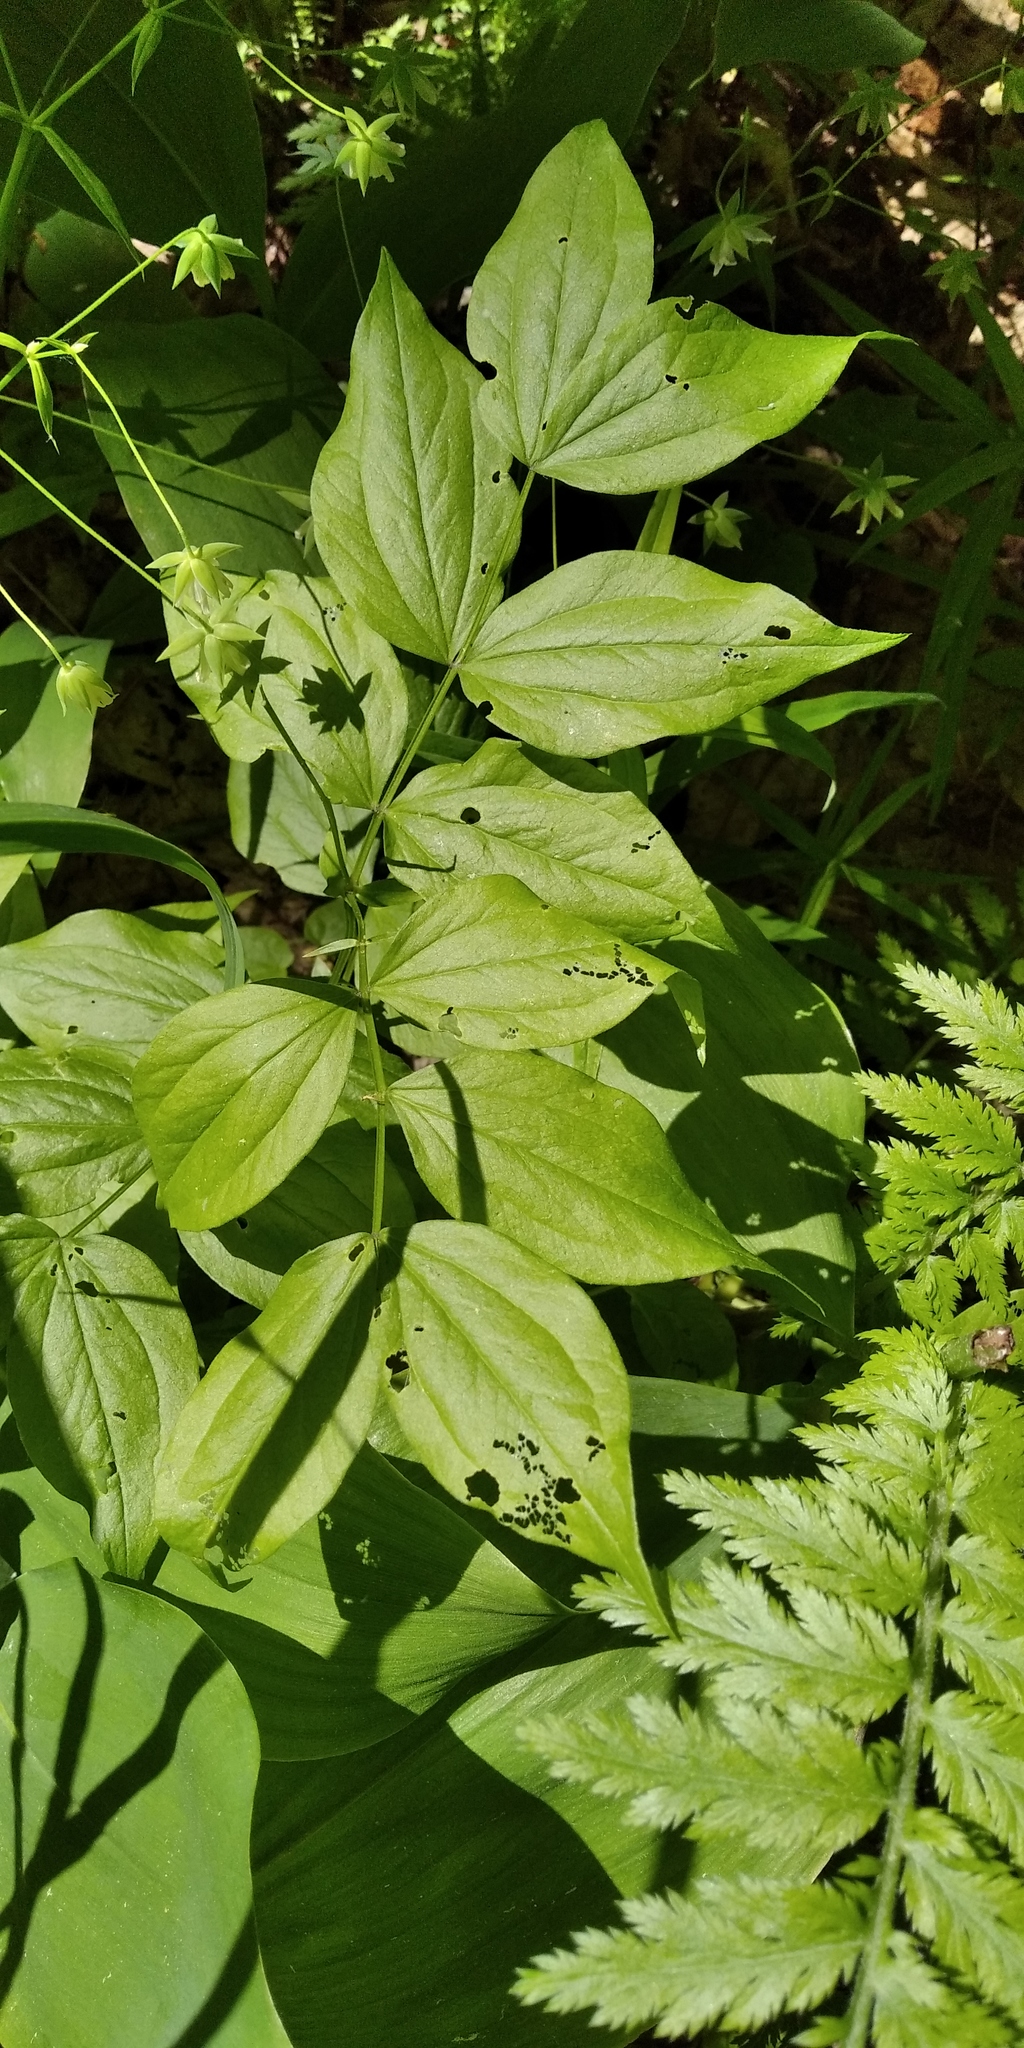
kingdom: Plantae
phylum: Tracheophyta
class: Magnoliopsida
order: Fabales
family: Fabaceae
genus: Lathyrus
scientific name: Lathyrus vernus
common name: Spring pea
